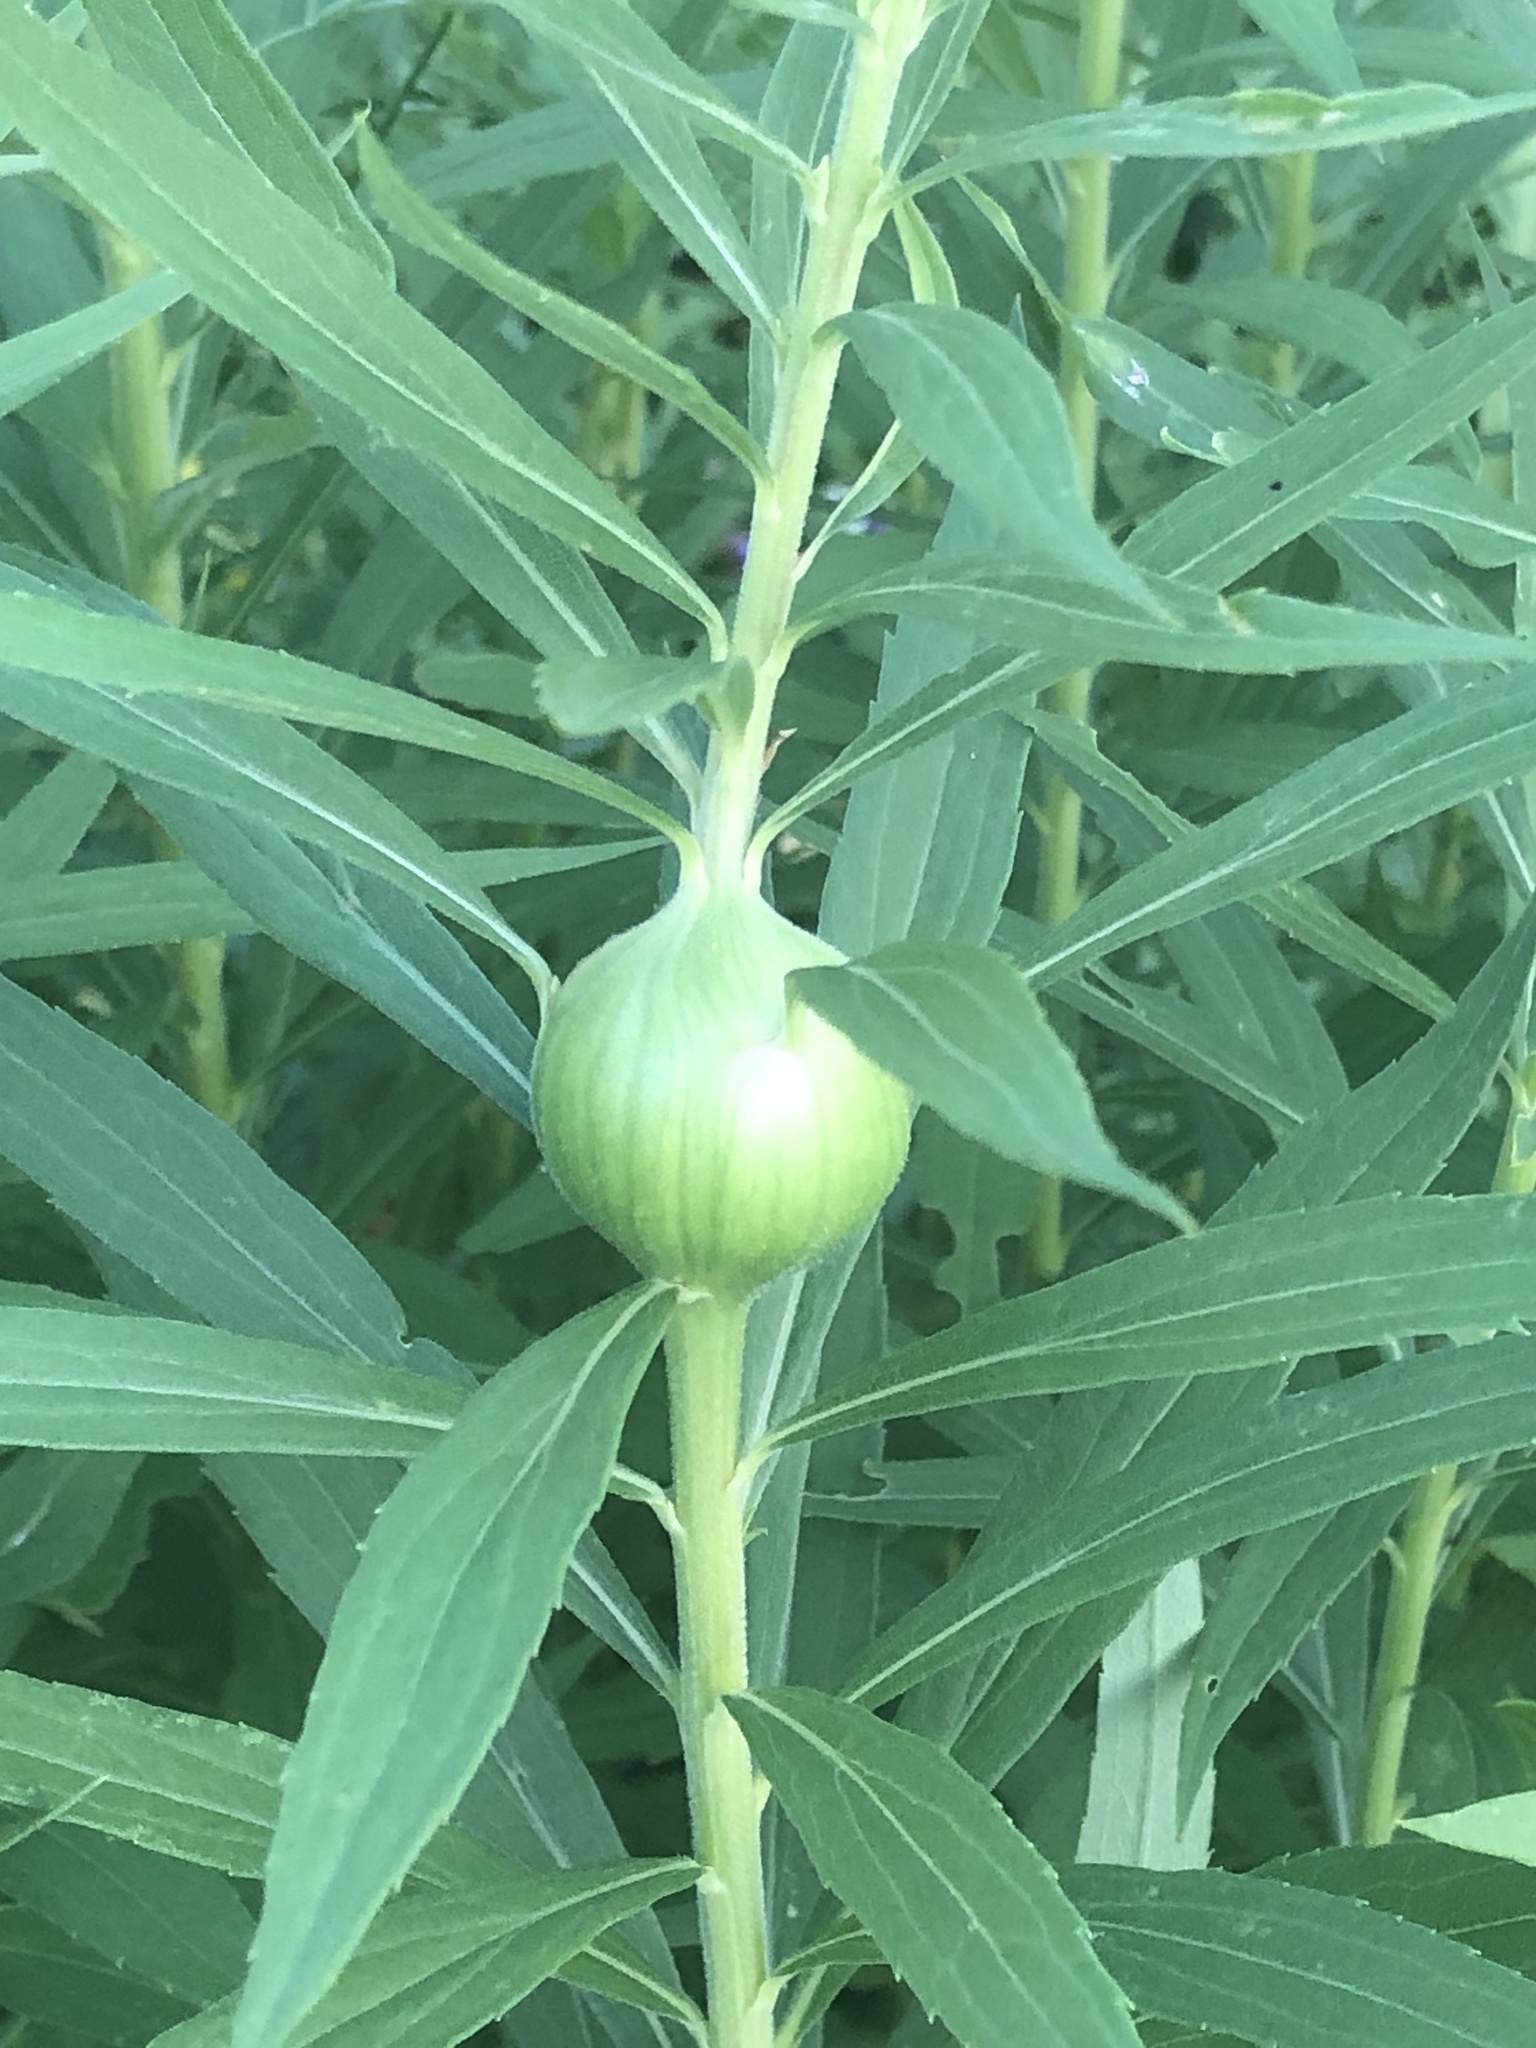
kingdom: Animalia
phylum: Arthropoda
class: Insecta
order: Diptera
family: Tephritidae
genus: Eurosta
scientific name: Eurosta solidaginis
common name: Goldenrod gall fly
